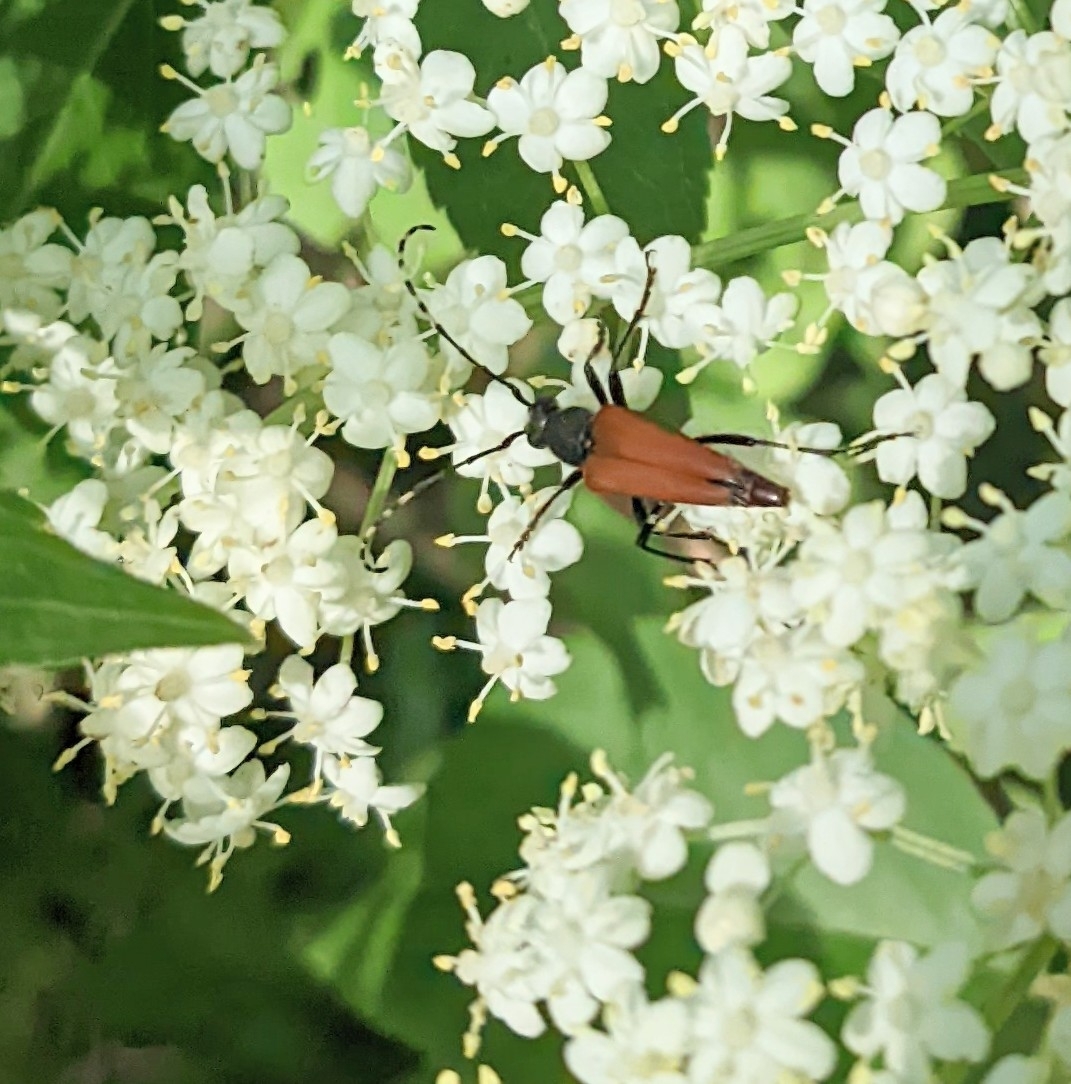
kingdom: Animalia
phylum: Arthropoda
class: Insecta
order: Coleoptera
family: Cerambycidae
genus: Brachyleptura
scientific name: Brachyleptura rubrica
